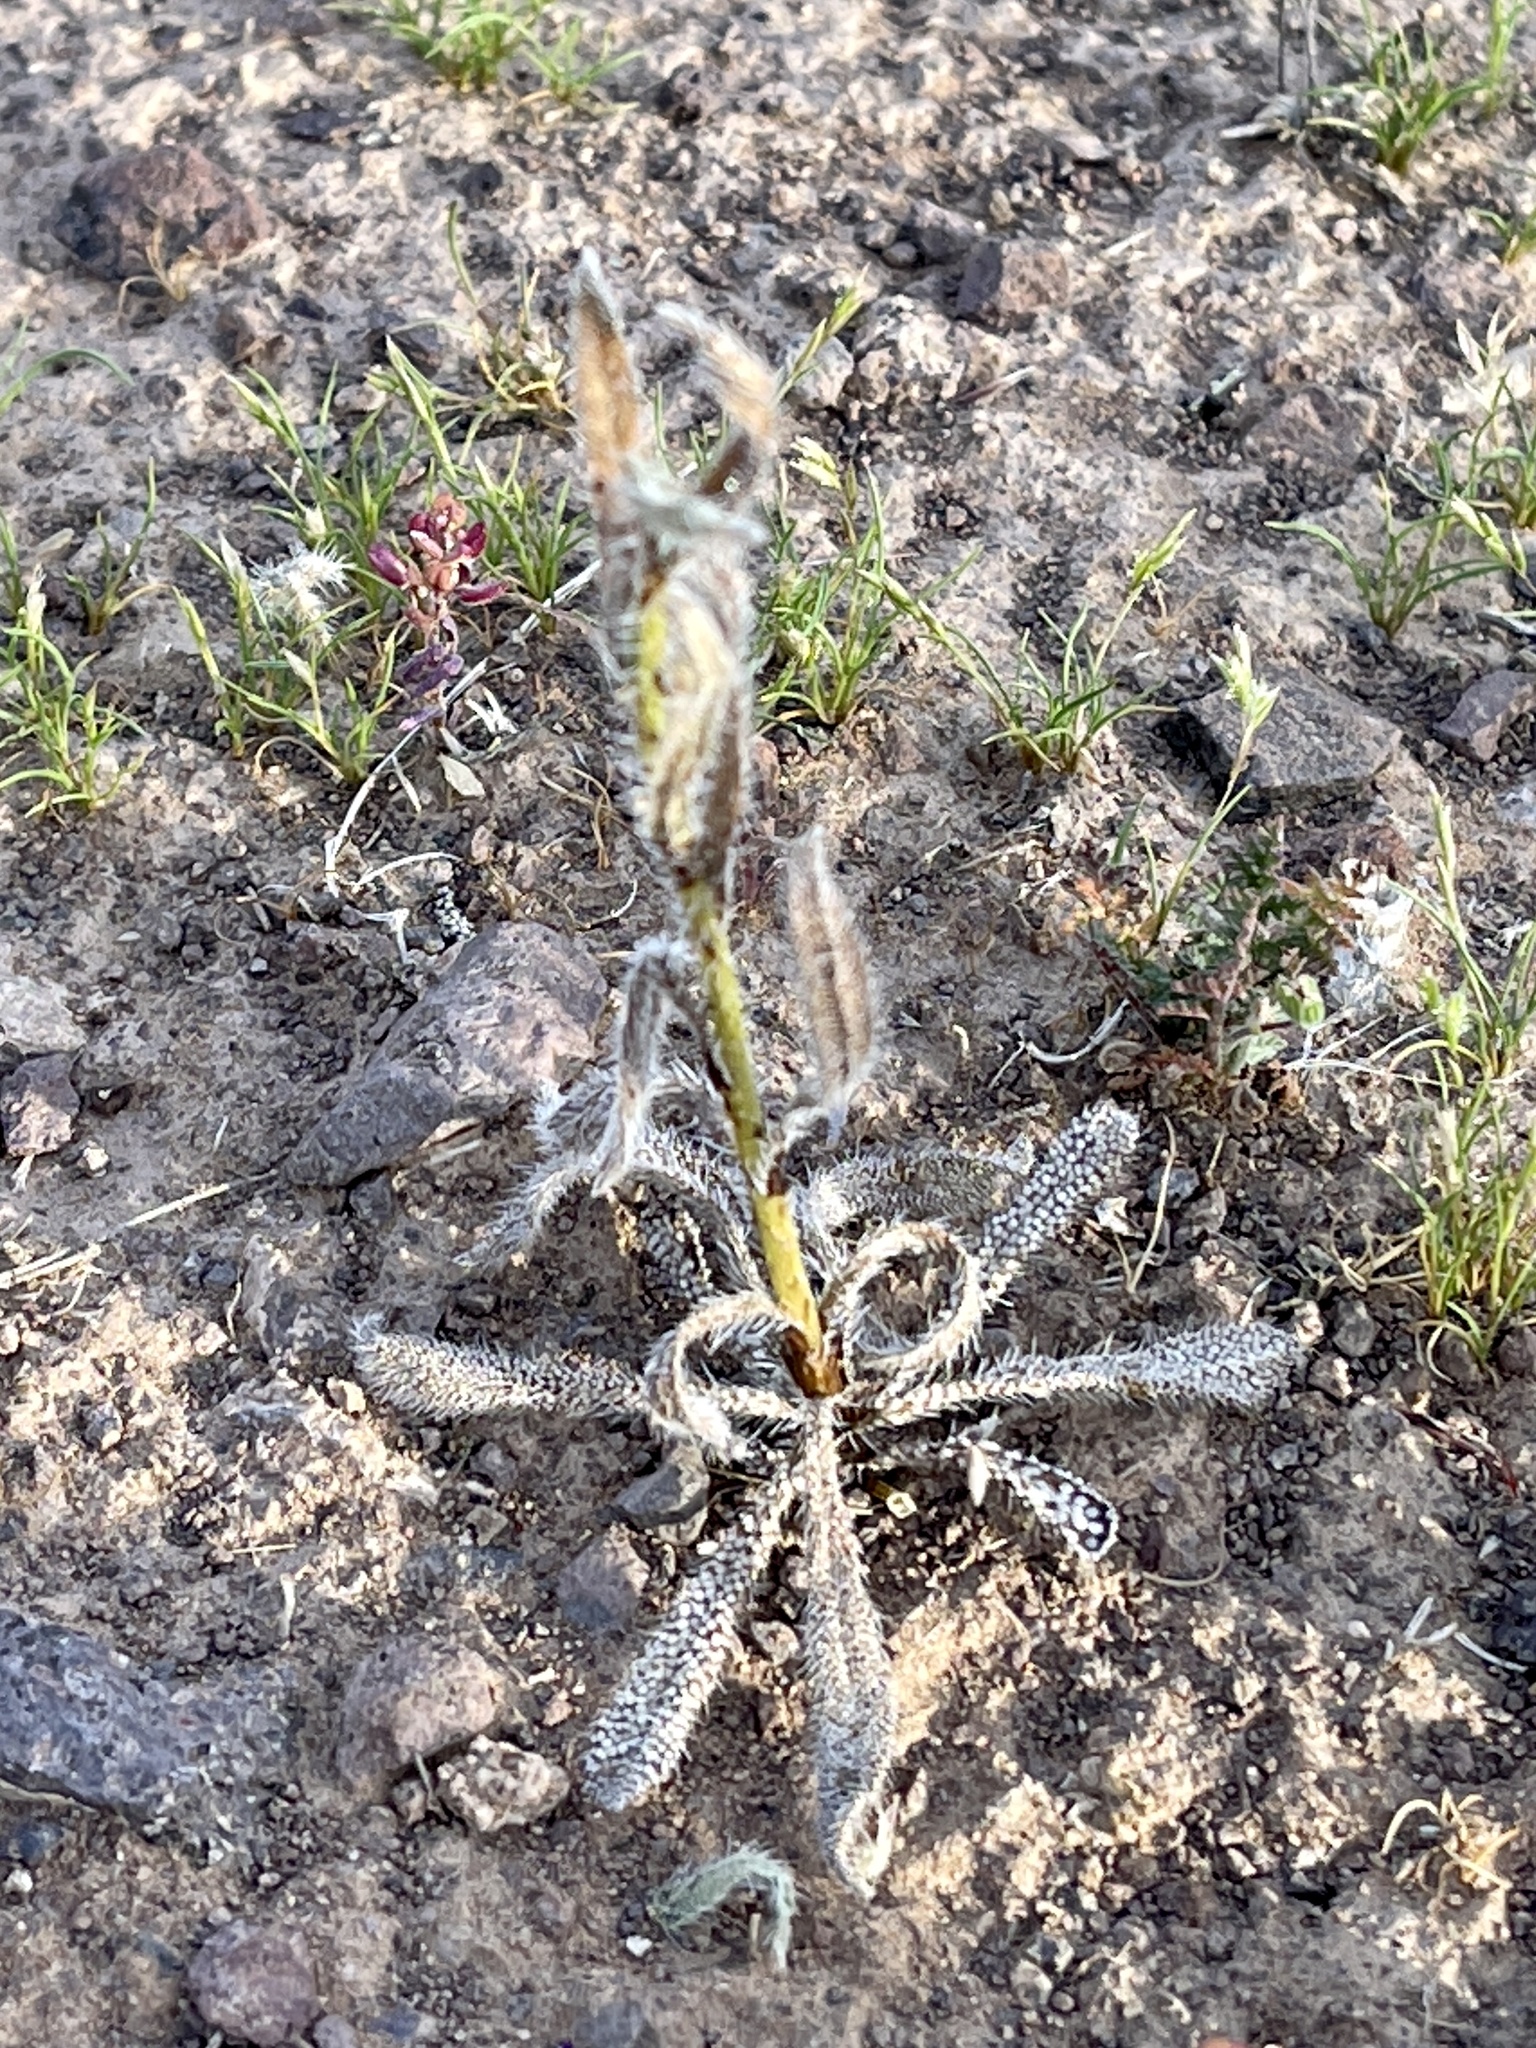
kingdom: Plantae
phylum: Tracheophyta
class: Magnoliopsida
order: Boraginales
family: Boraginaceae
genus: Amsinckia
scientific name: Amsinckia tessellata
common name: Tessellate fiddleneck
